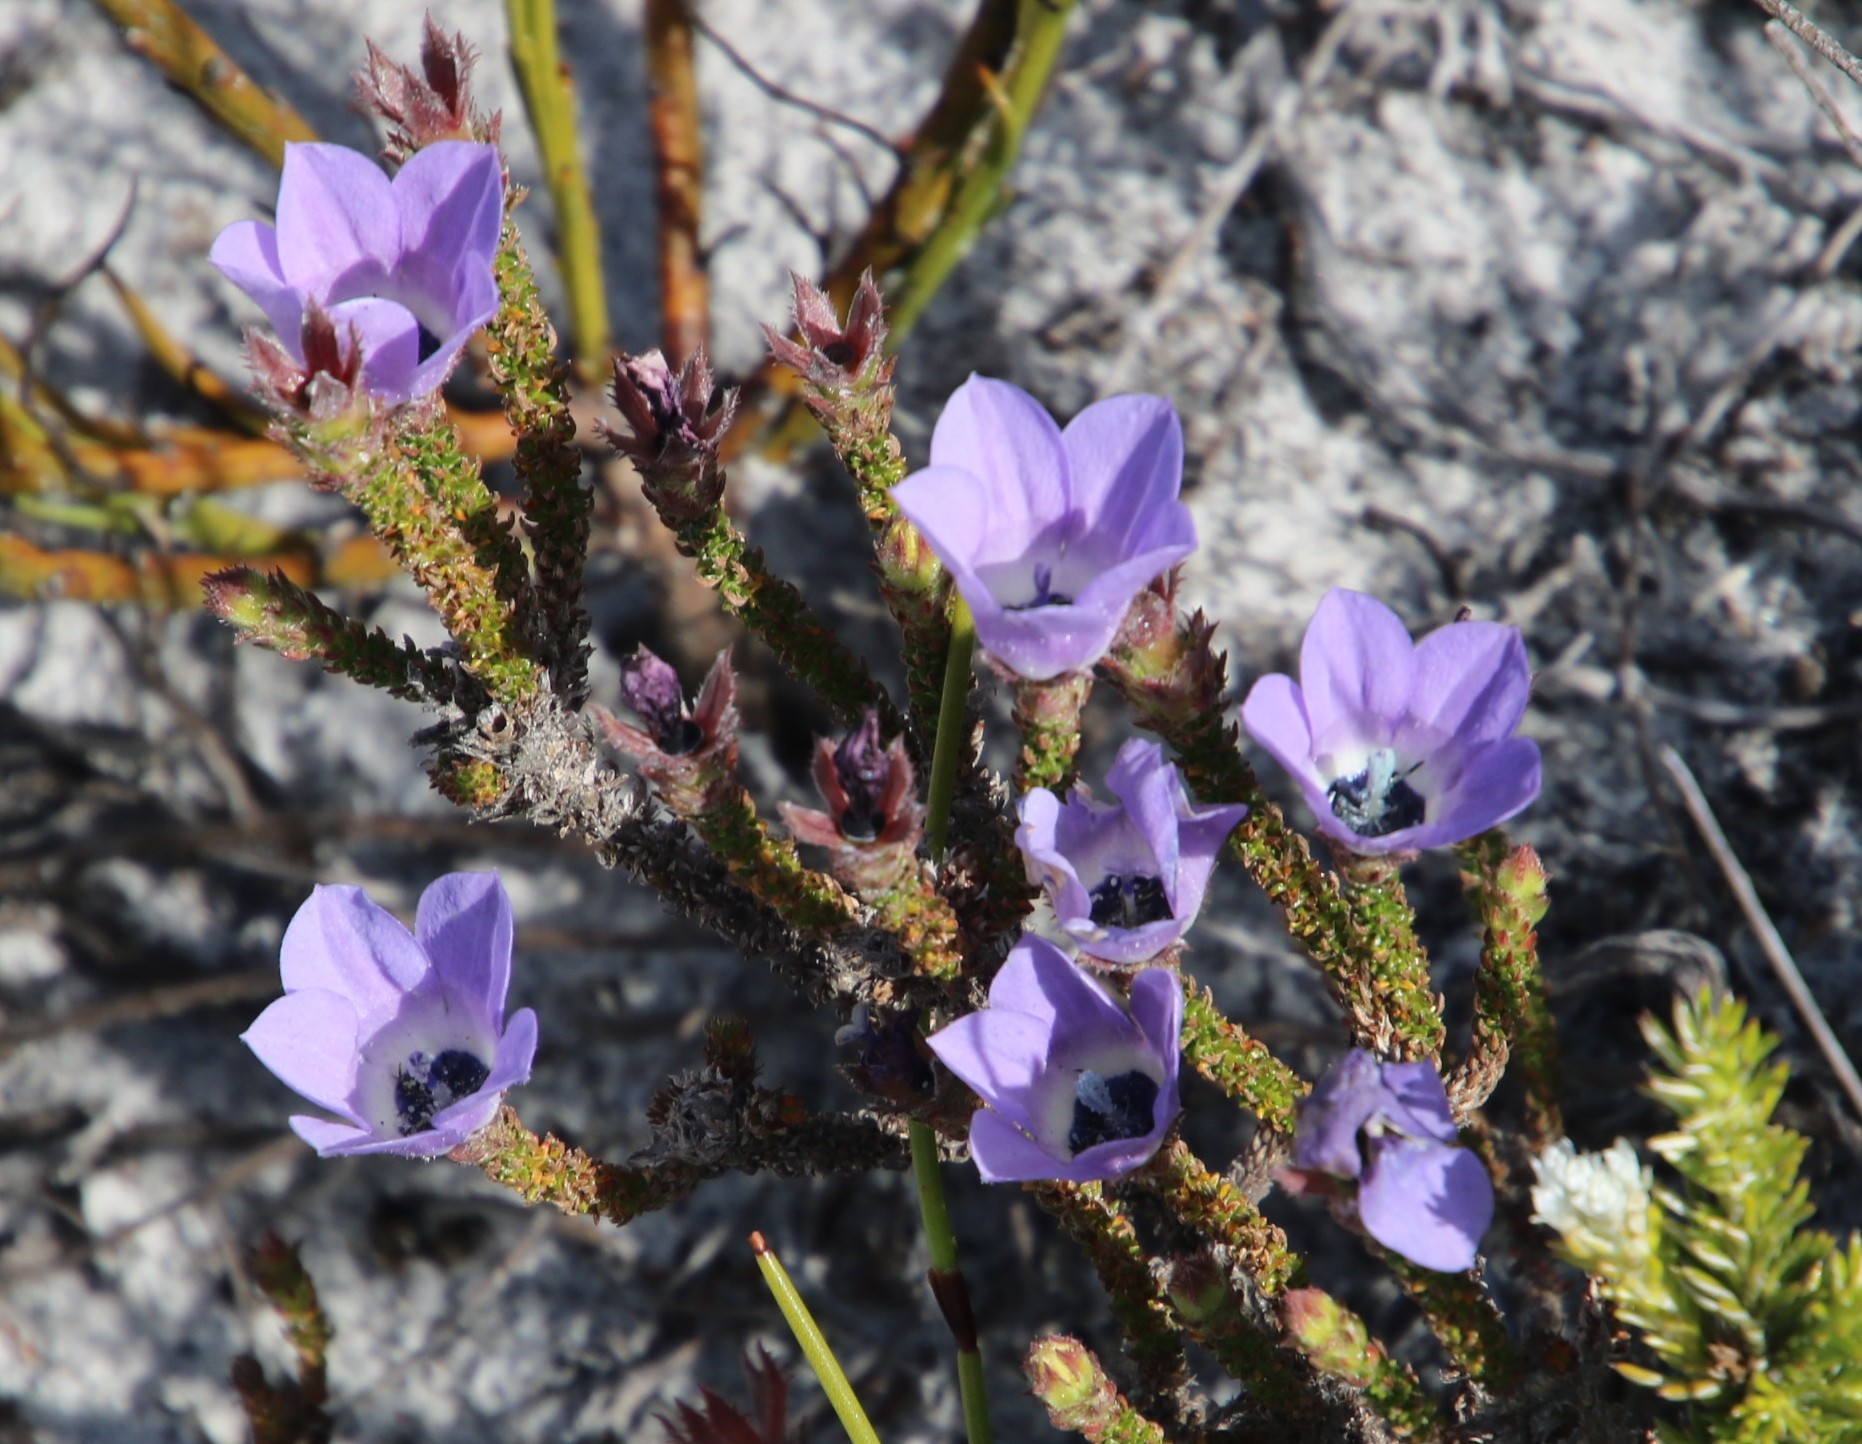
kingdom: Plantae
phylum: Tracheophyta
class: Magnoliopsida
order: Asterales
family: Campanulaceae
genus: Roella
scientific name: Roella triflora
